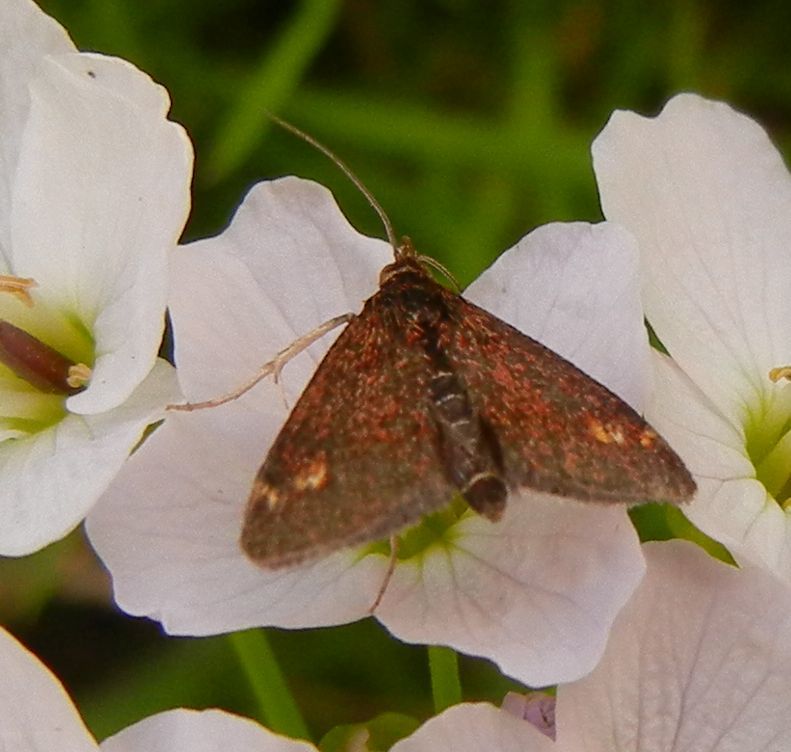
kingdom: Animalia
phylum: Arthropoda
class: Insecta
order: Lepidoptera
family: Crambidae
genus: Pyrausta
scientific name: Pyrausta aurata
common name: Small purple & gold
